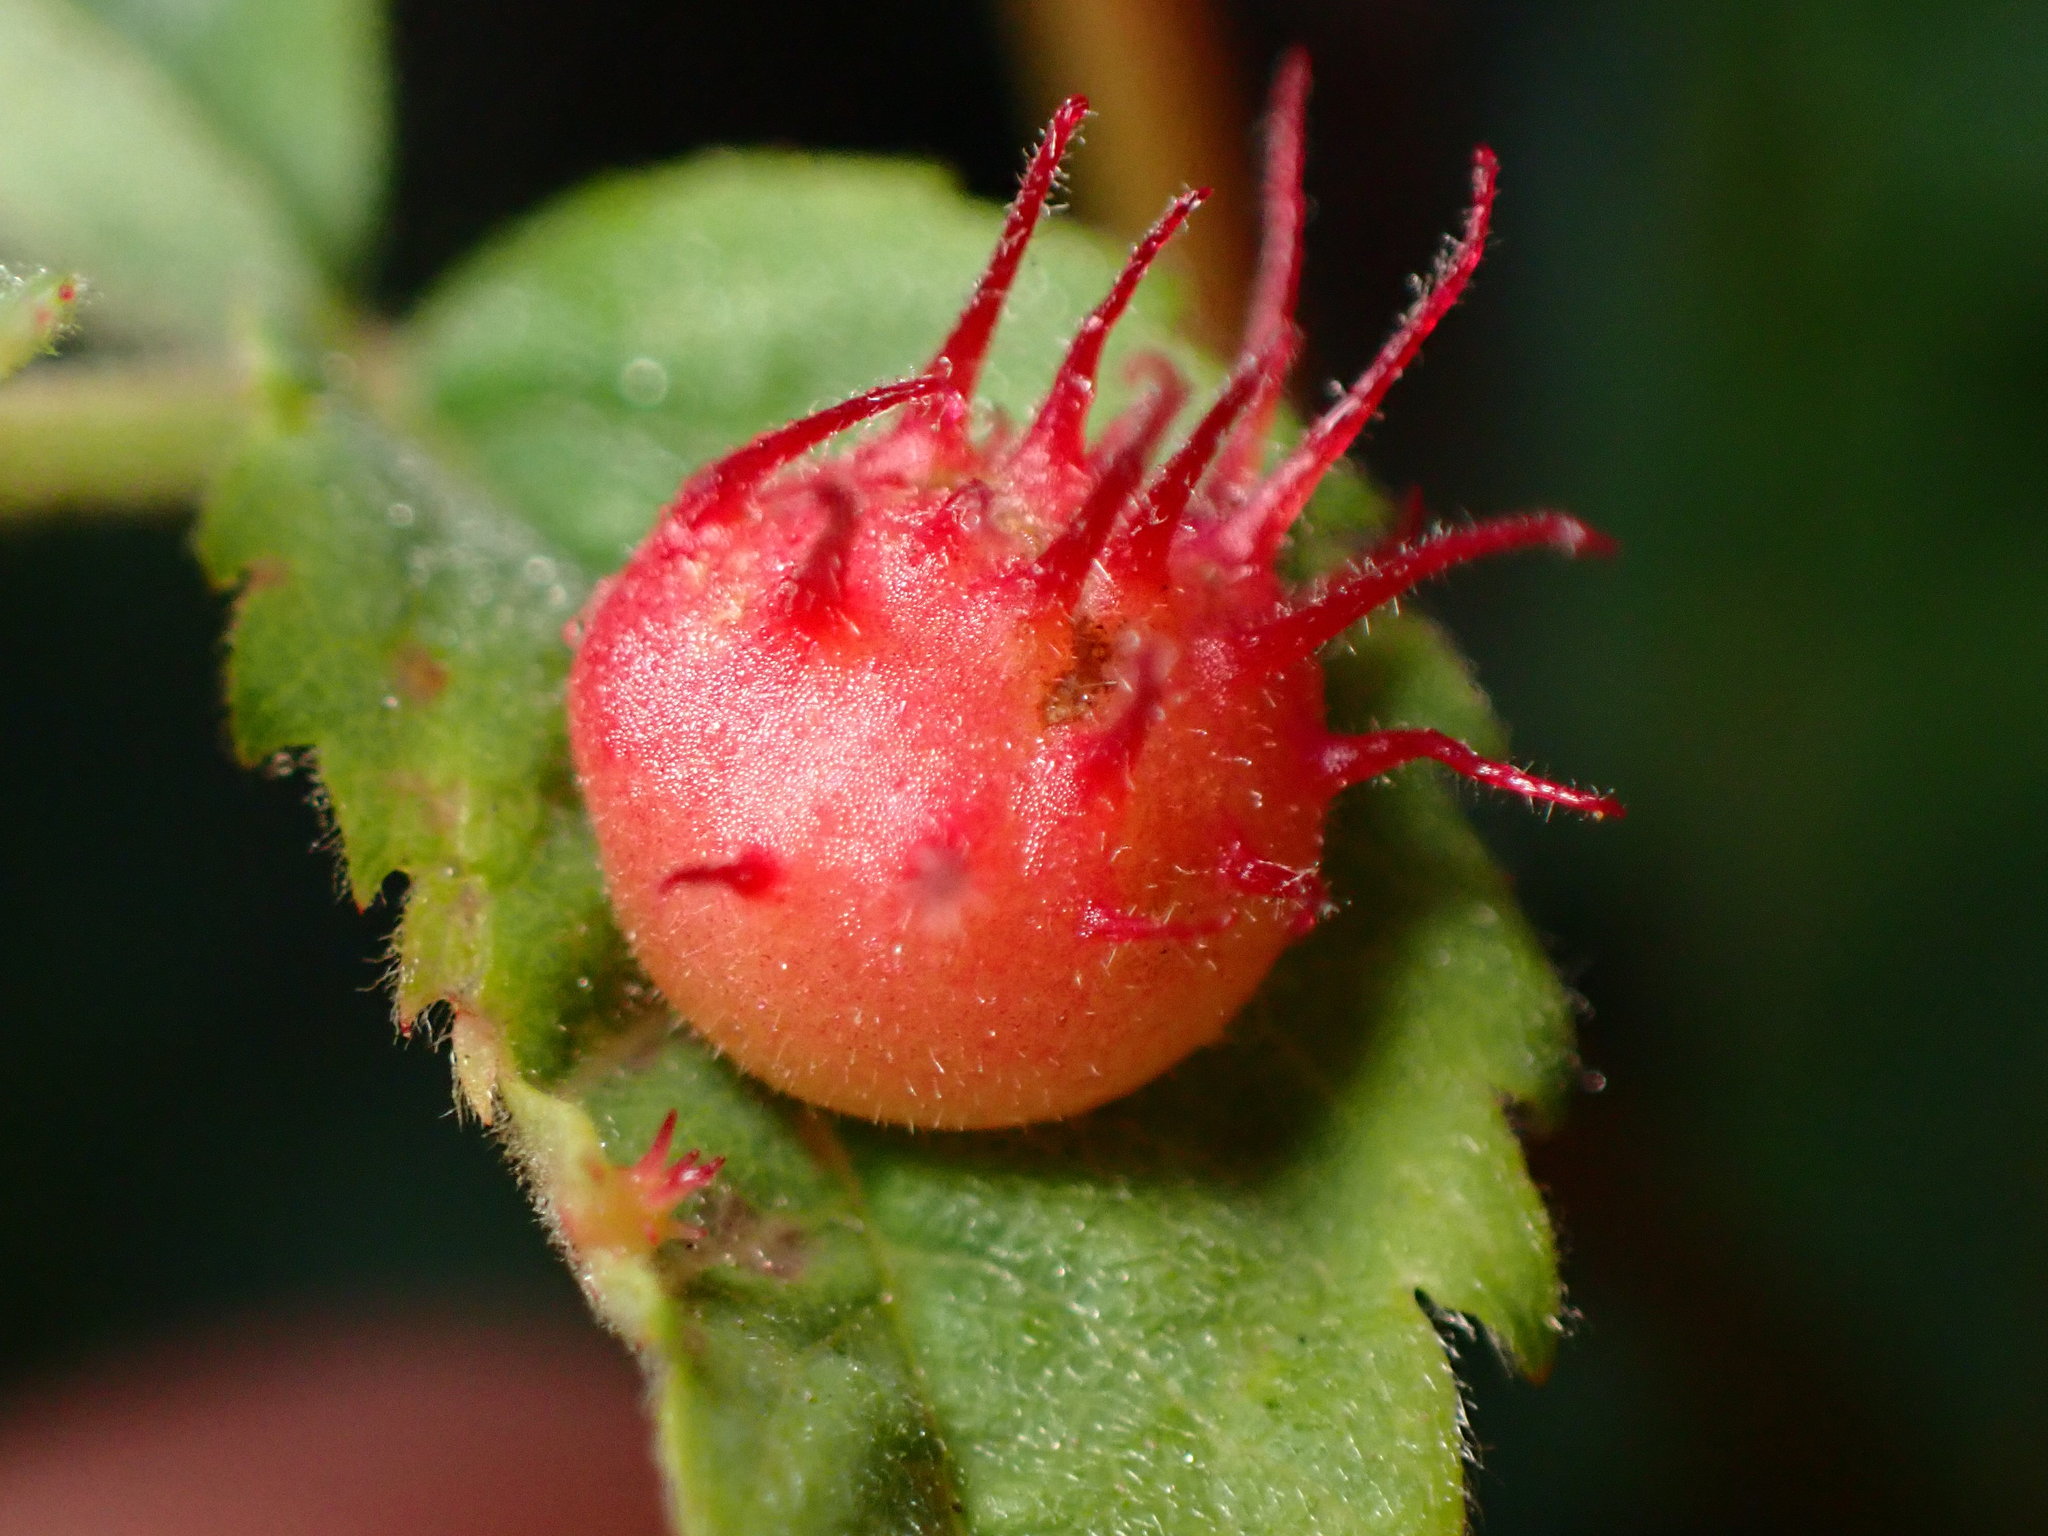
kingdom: Animalia
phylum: Arthropoda
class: Insecta
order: Hymenoptera
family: Cynipidae
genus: Diplolepis
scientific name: Diplolepis polita
